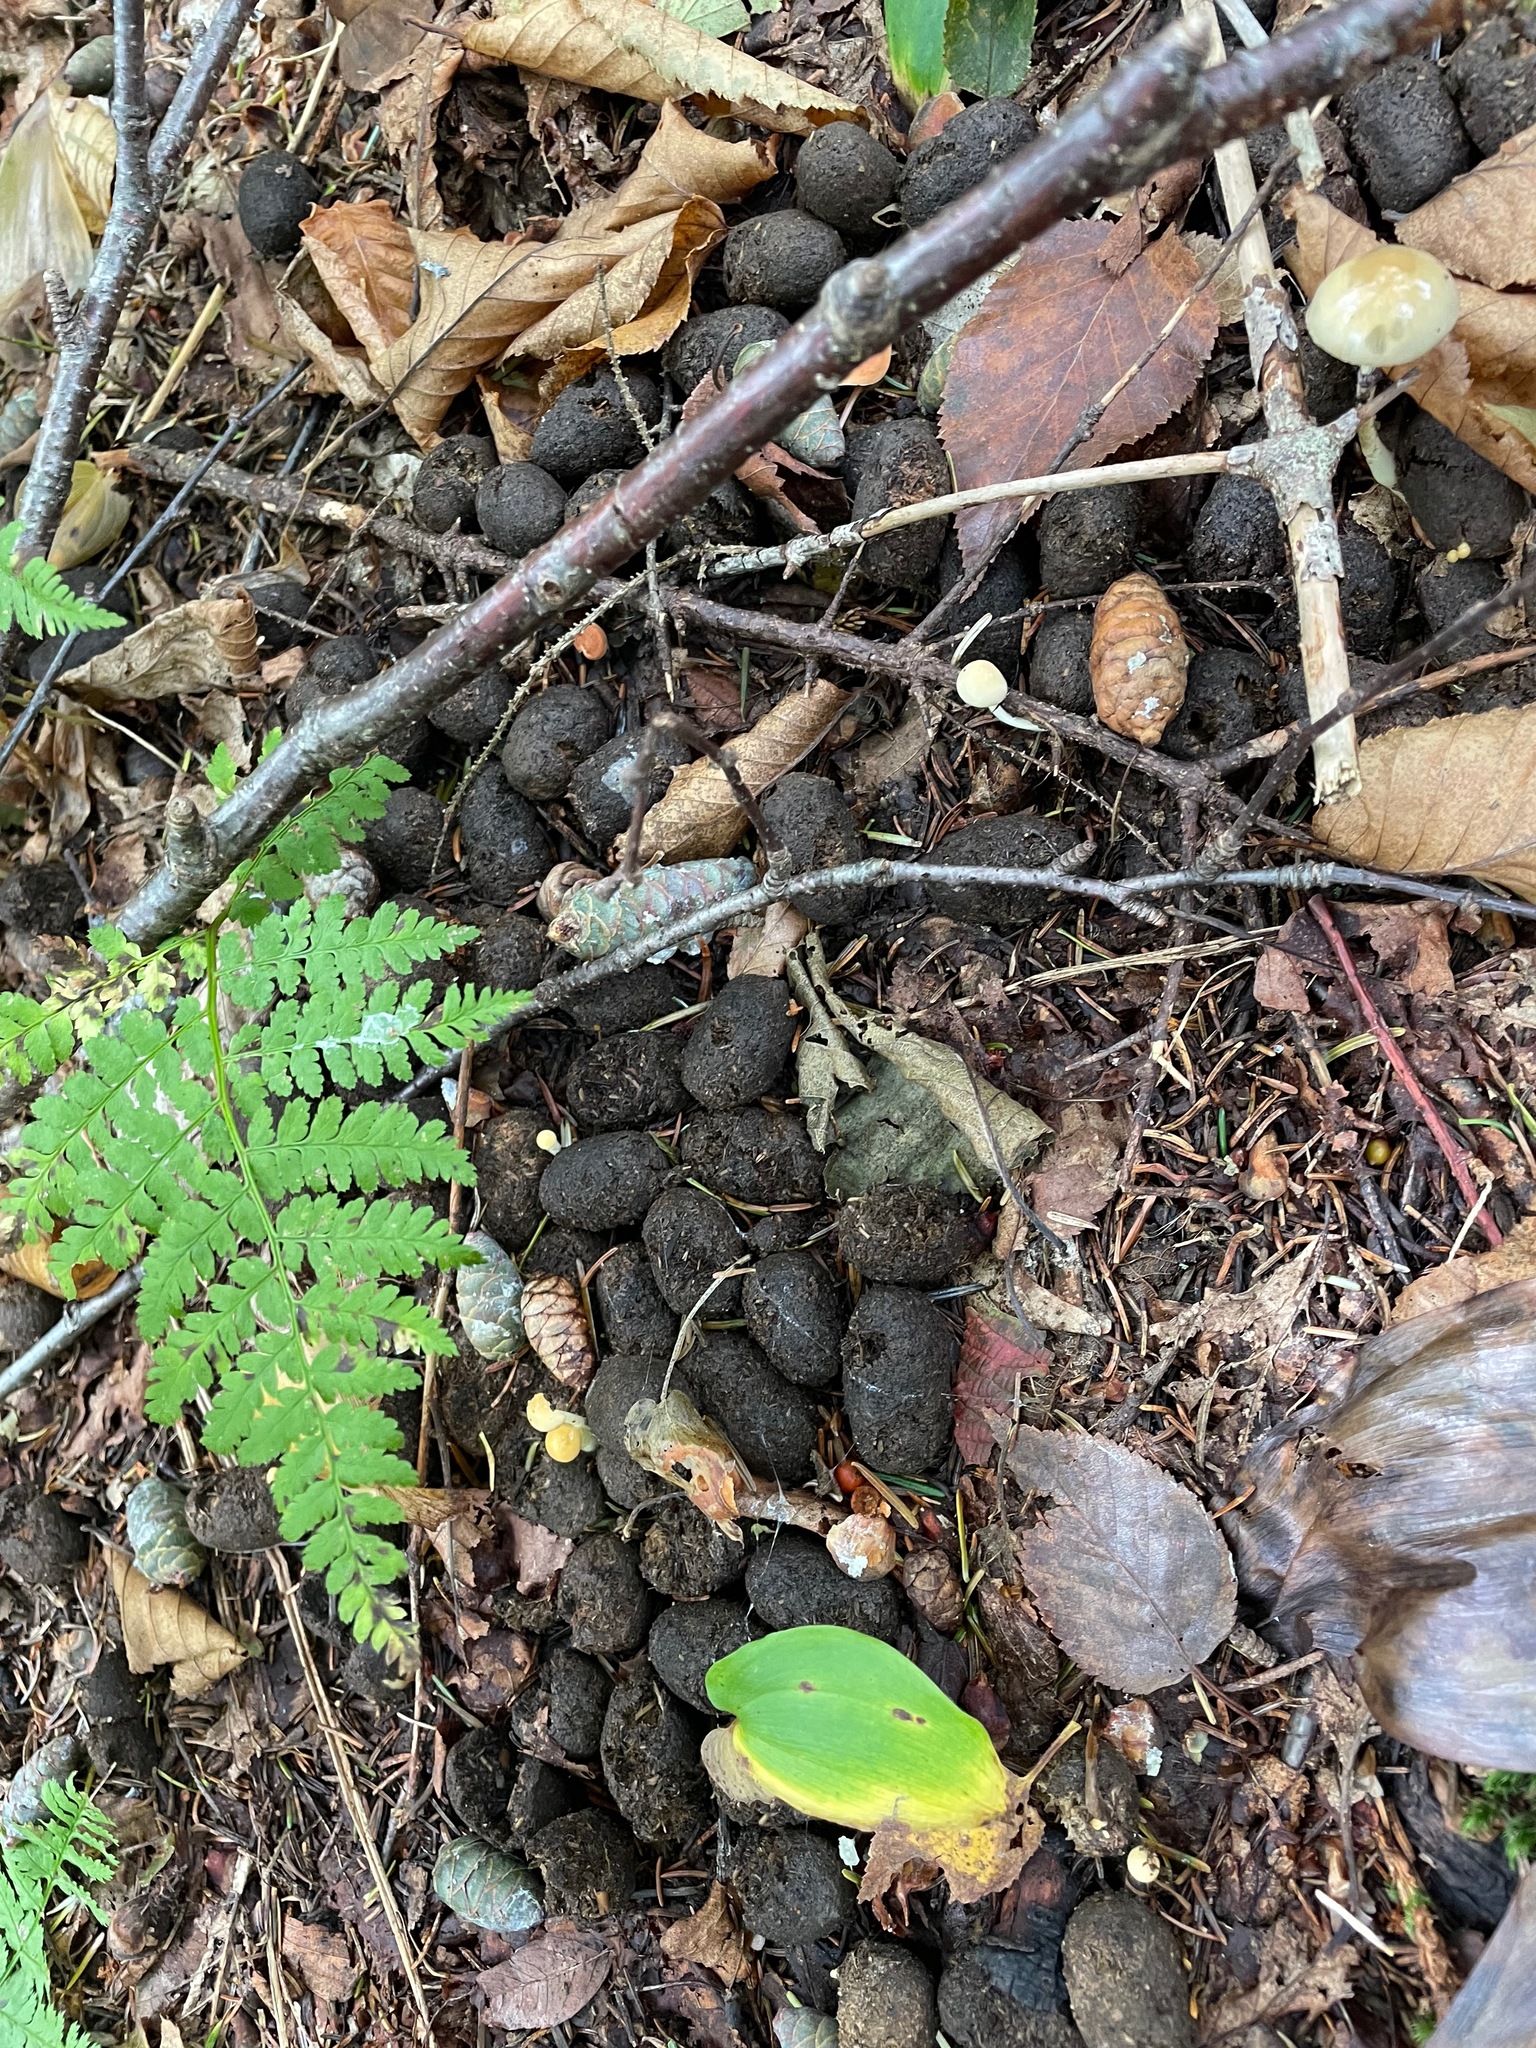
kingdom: Animalia
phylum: Chordata
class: Mammalia
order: Artiodactyla
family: Cervidae
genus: Alces
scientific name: Alces alces
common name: Moose
